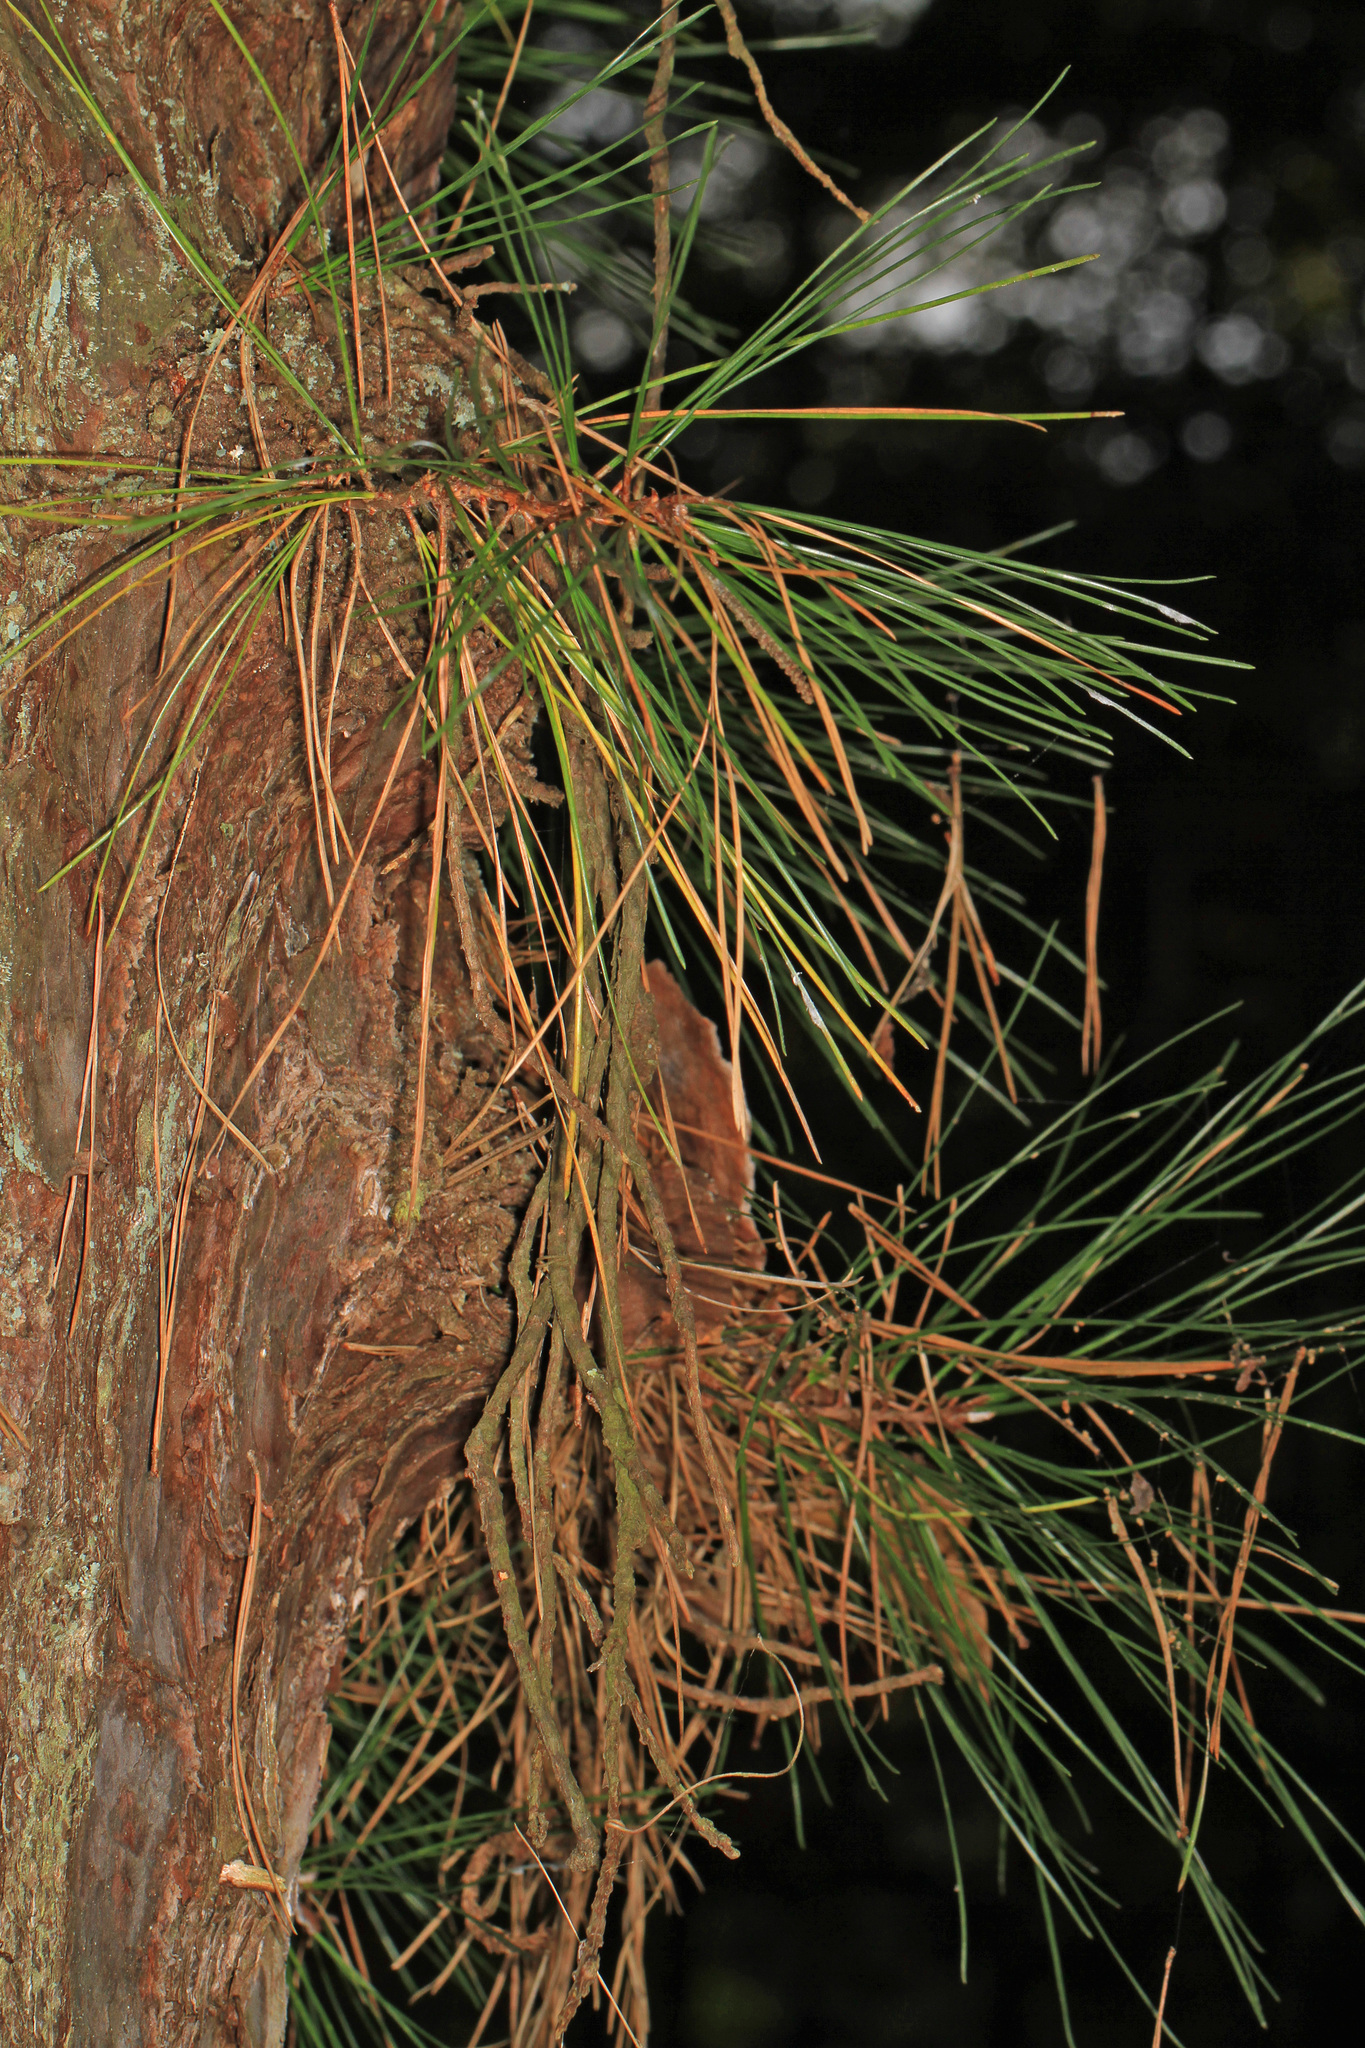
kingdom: Plantae
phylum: Tracheophyta
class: Pinopsida
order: Pinales
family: Pinaceae
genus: Pinus
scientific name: Pinus serotina
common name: Marsh pine
